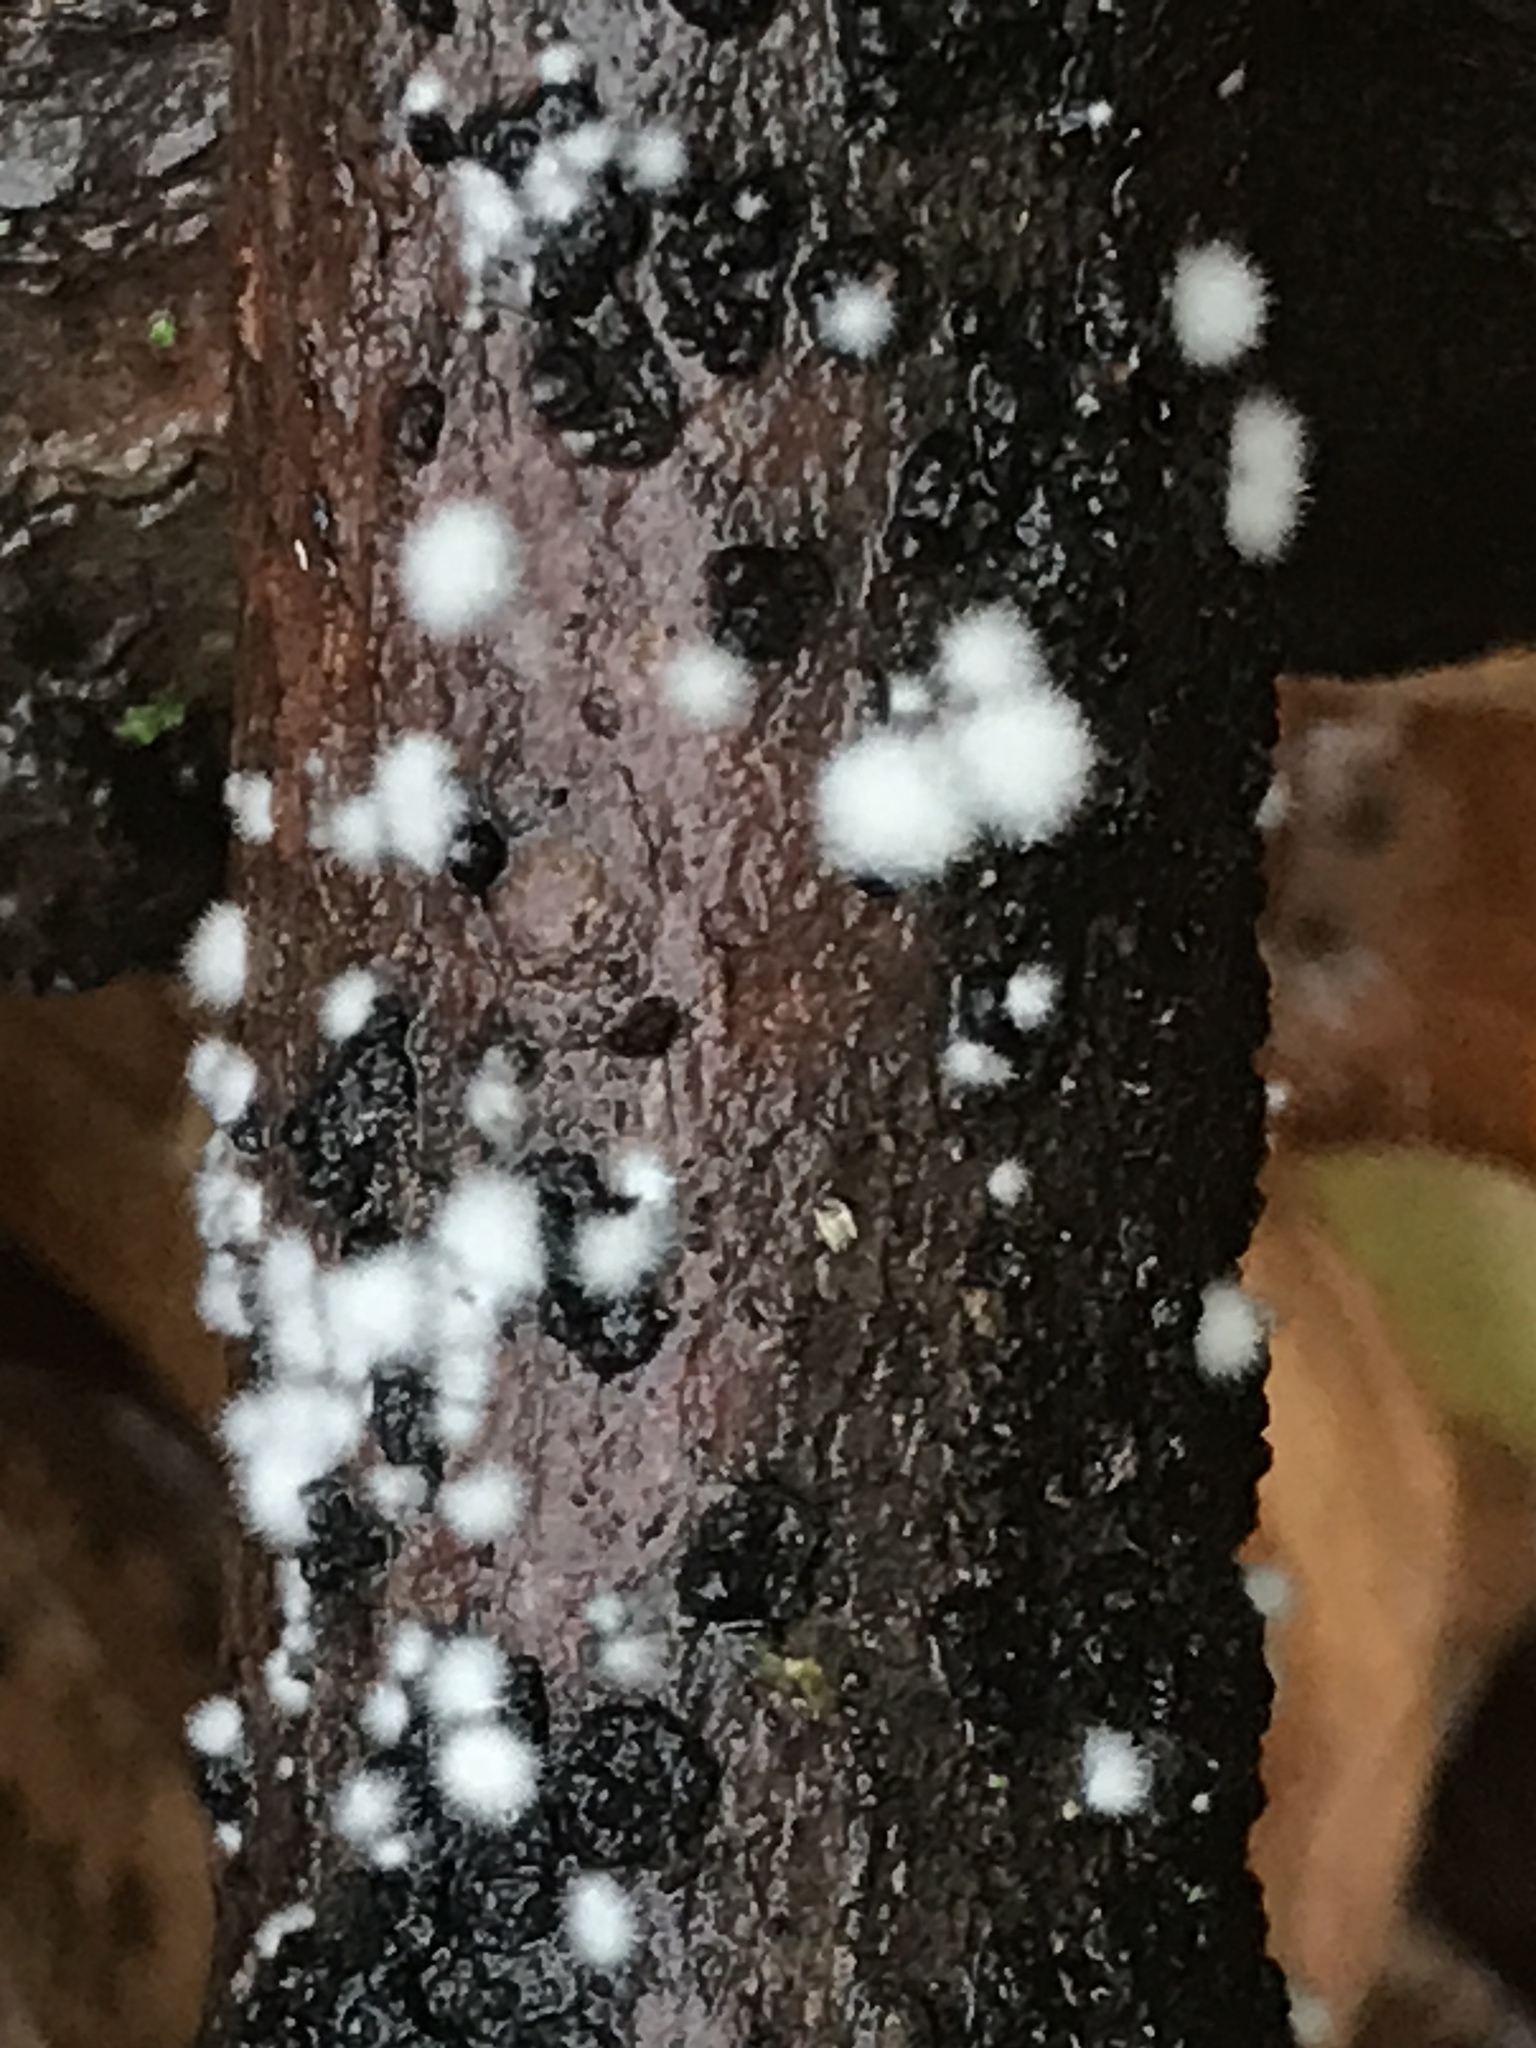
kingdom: Fungi
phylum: Ascomycota
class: Sordariomycetes
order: Hypocreales
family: Hypocreaceae
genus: Trichoderma
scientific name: Trichoderma stilbohypoxyli
